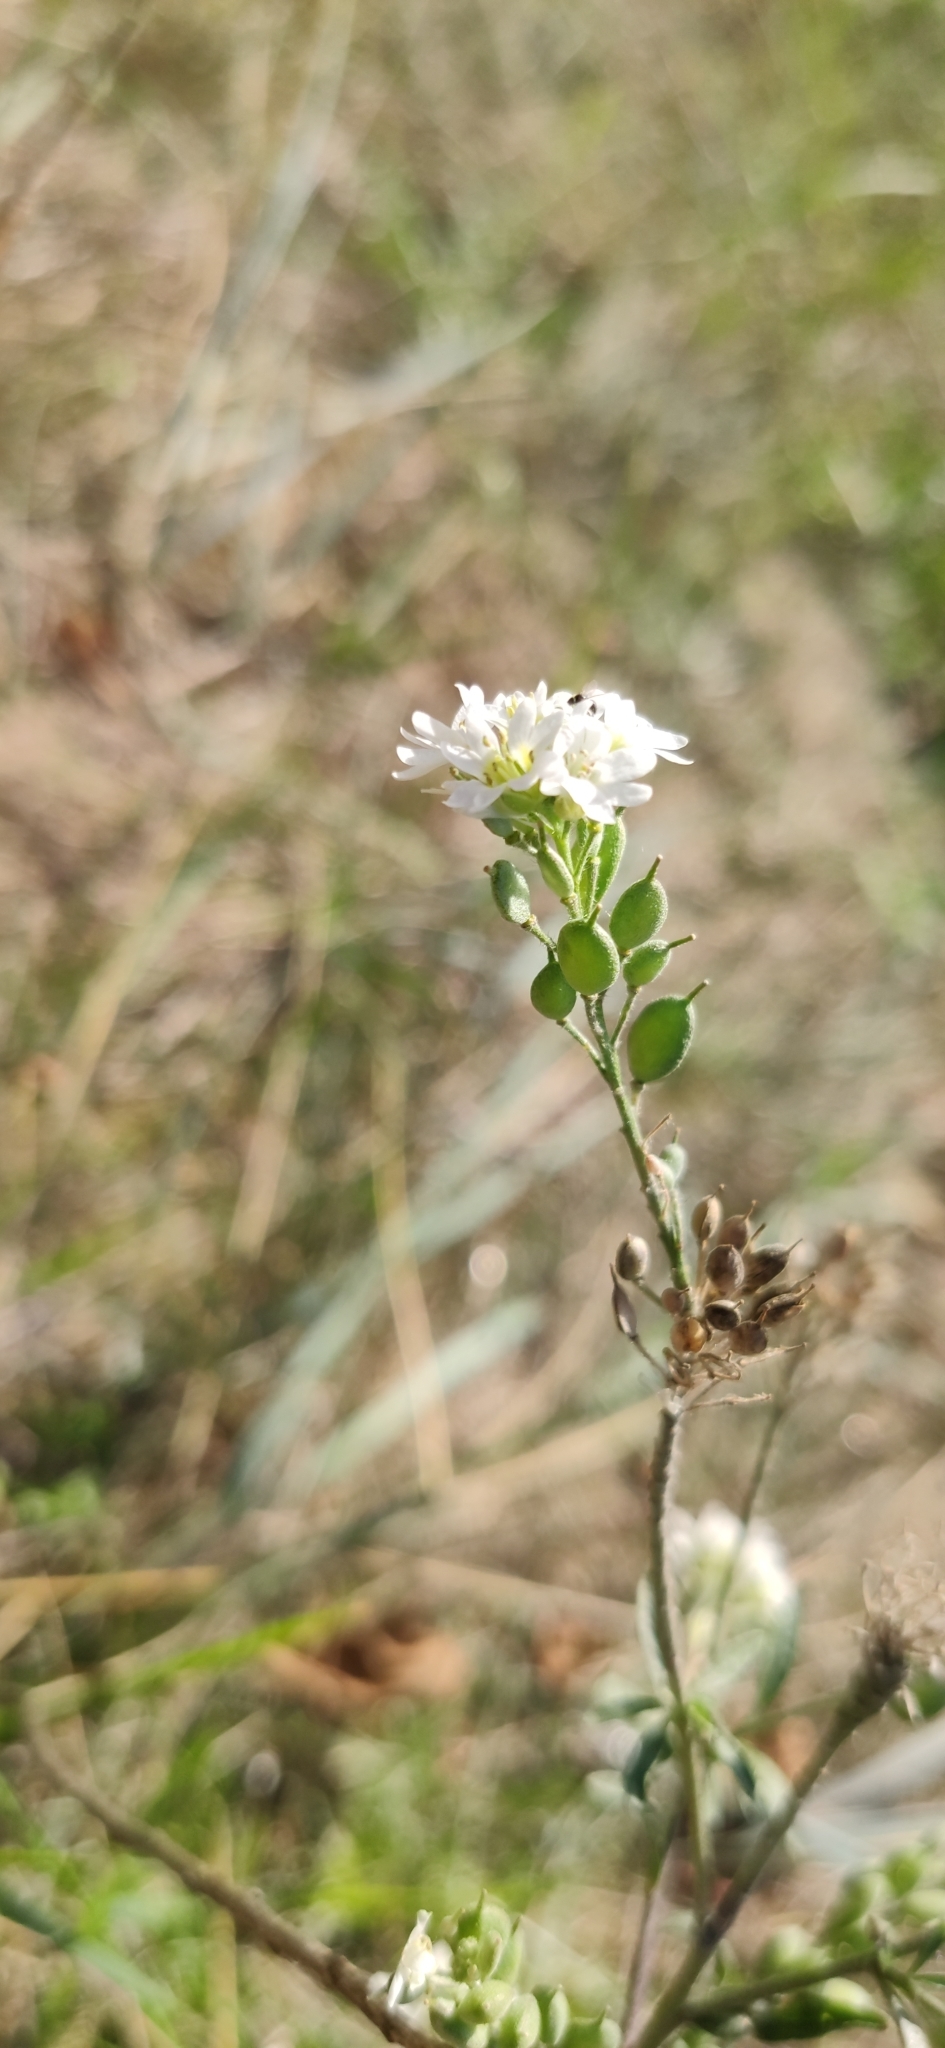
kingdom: Plantae
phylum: Tracheophyta
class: Magnoliopsida
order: Brassicales
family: Brassicaceae
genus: Berteroa
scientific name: Berteroa incana
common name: Hoary alison
